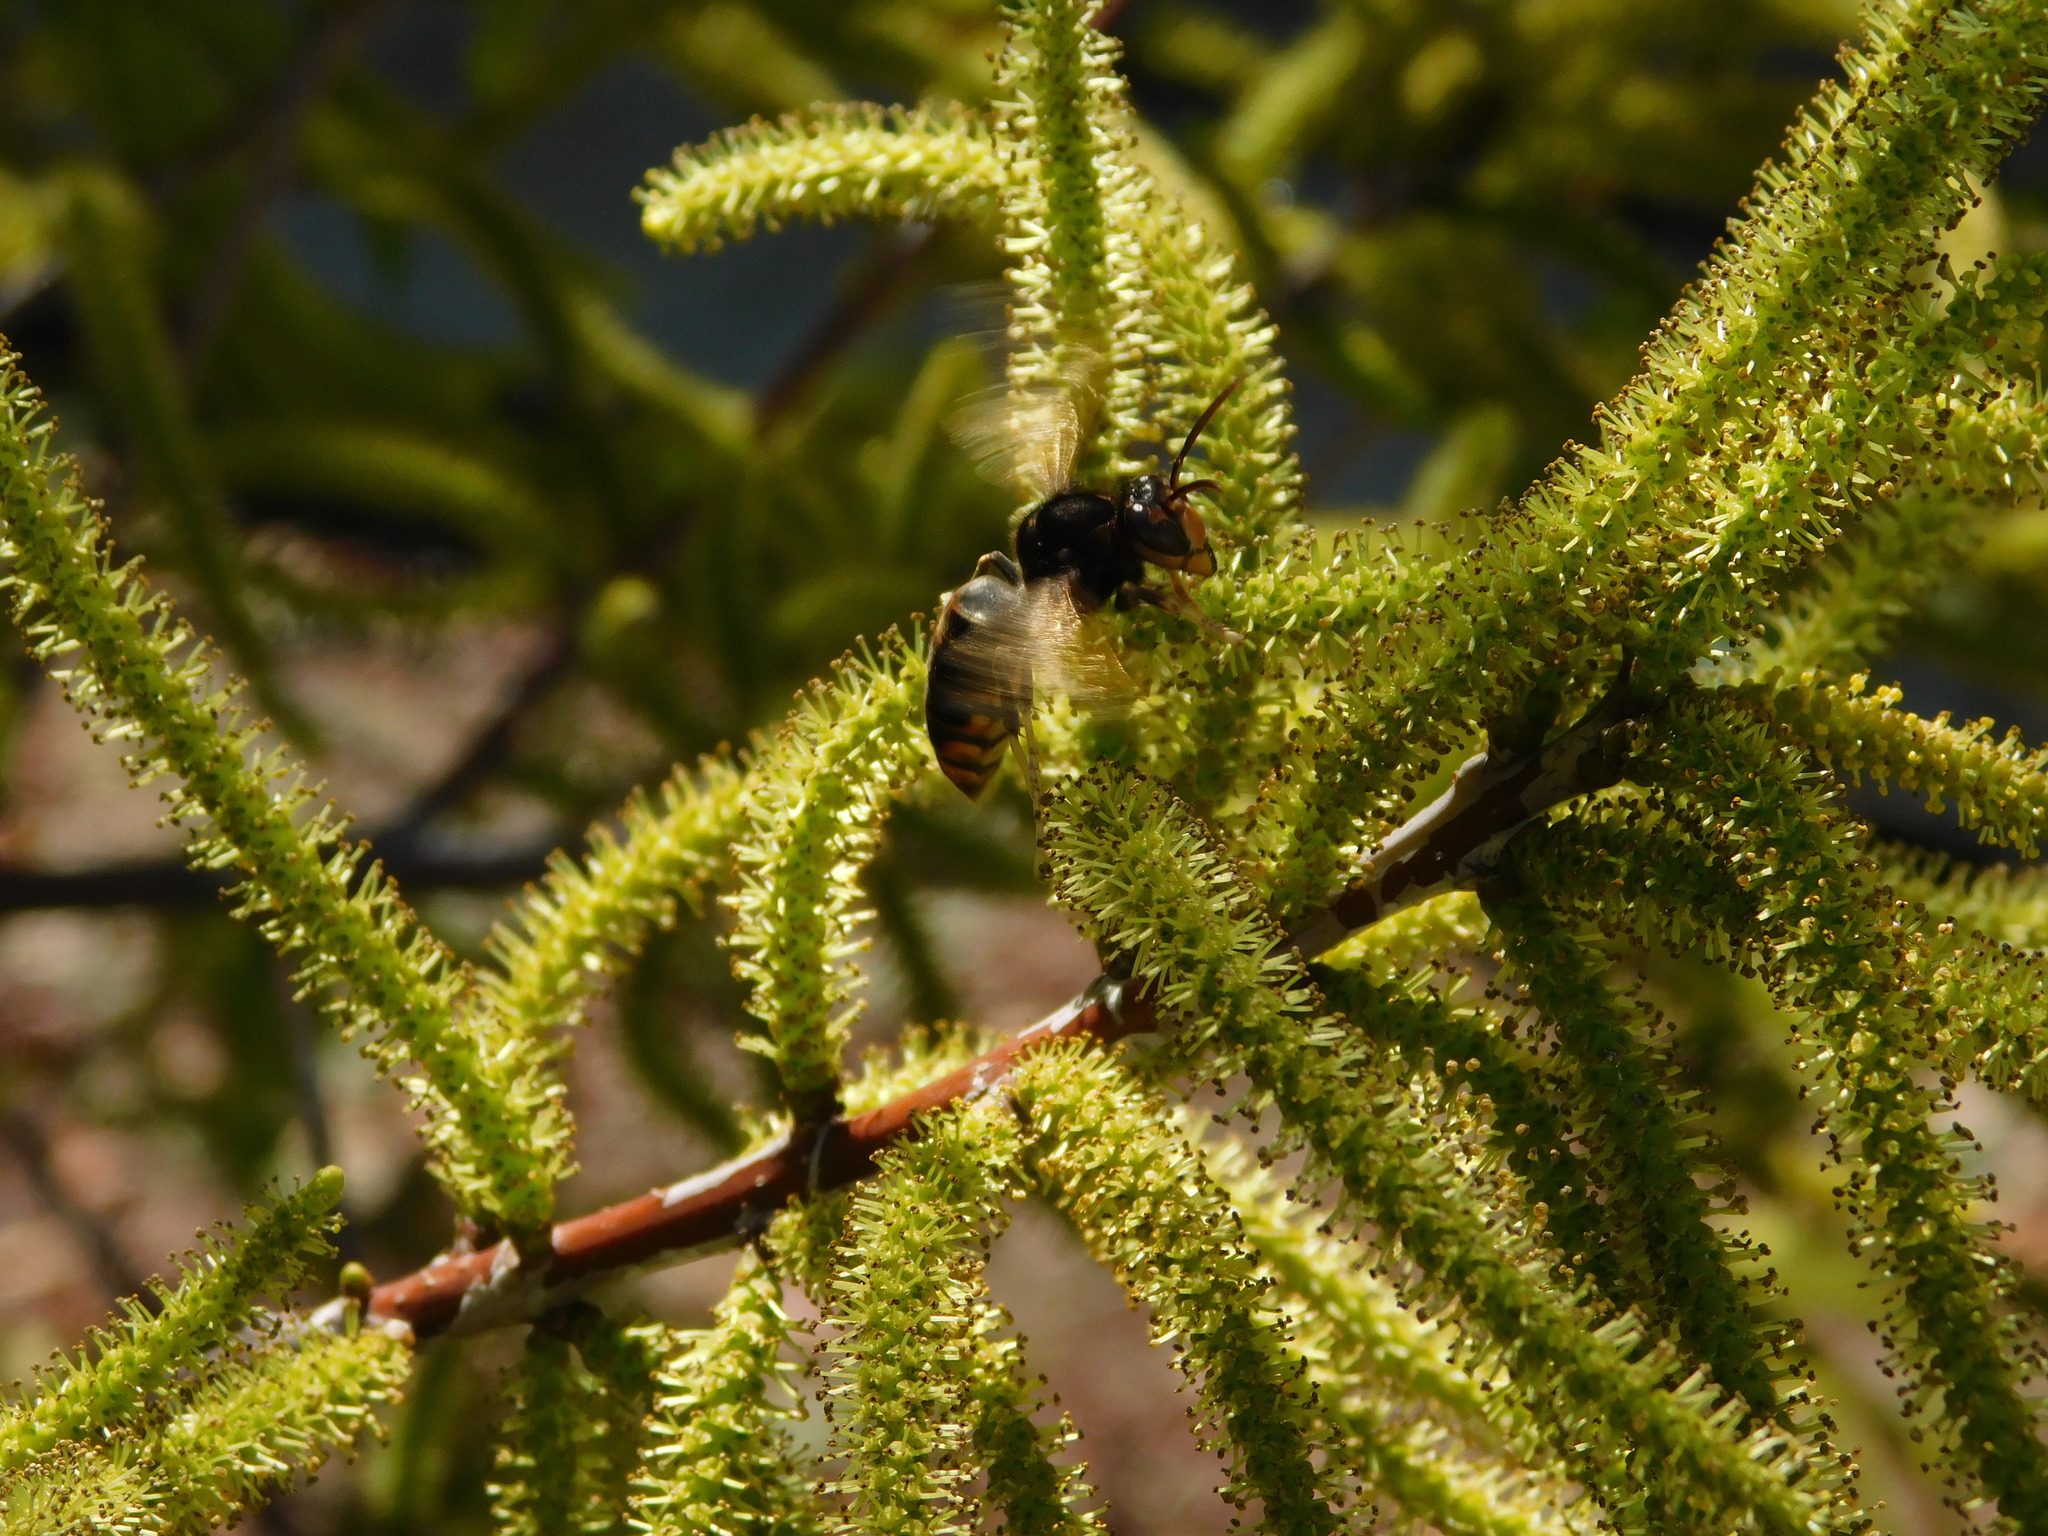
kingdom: Animalia
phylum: Arthropoda
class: Insecta
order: Hymenoptera
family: Vespidae
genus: Vespa
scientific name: Vespa velutina
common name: Asian hornet
